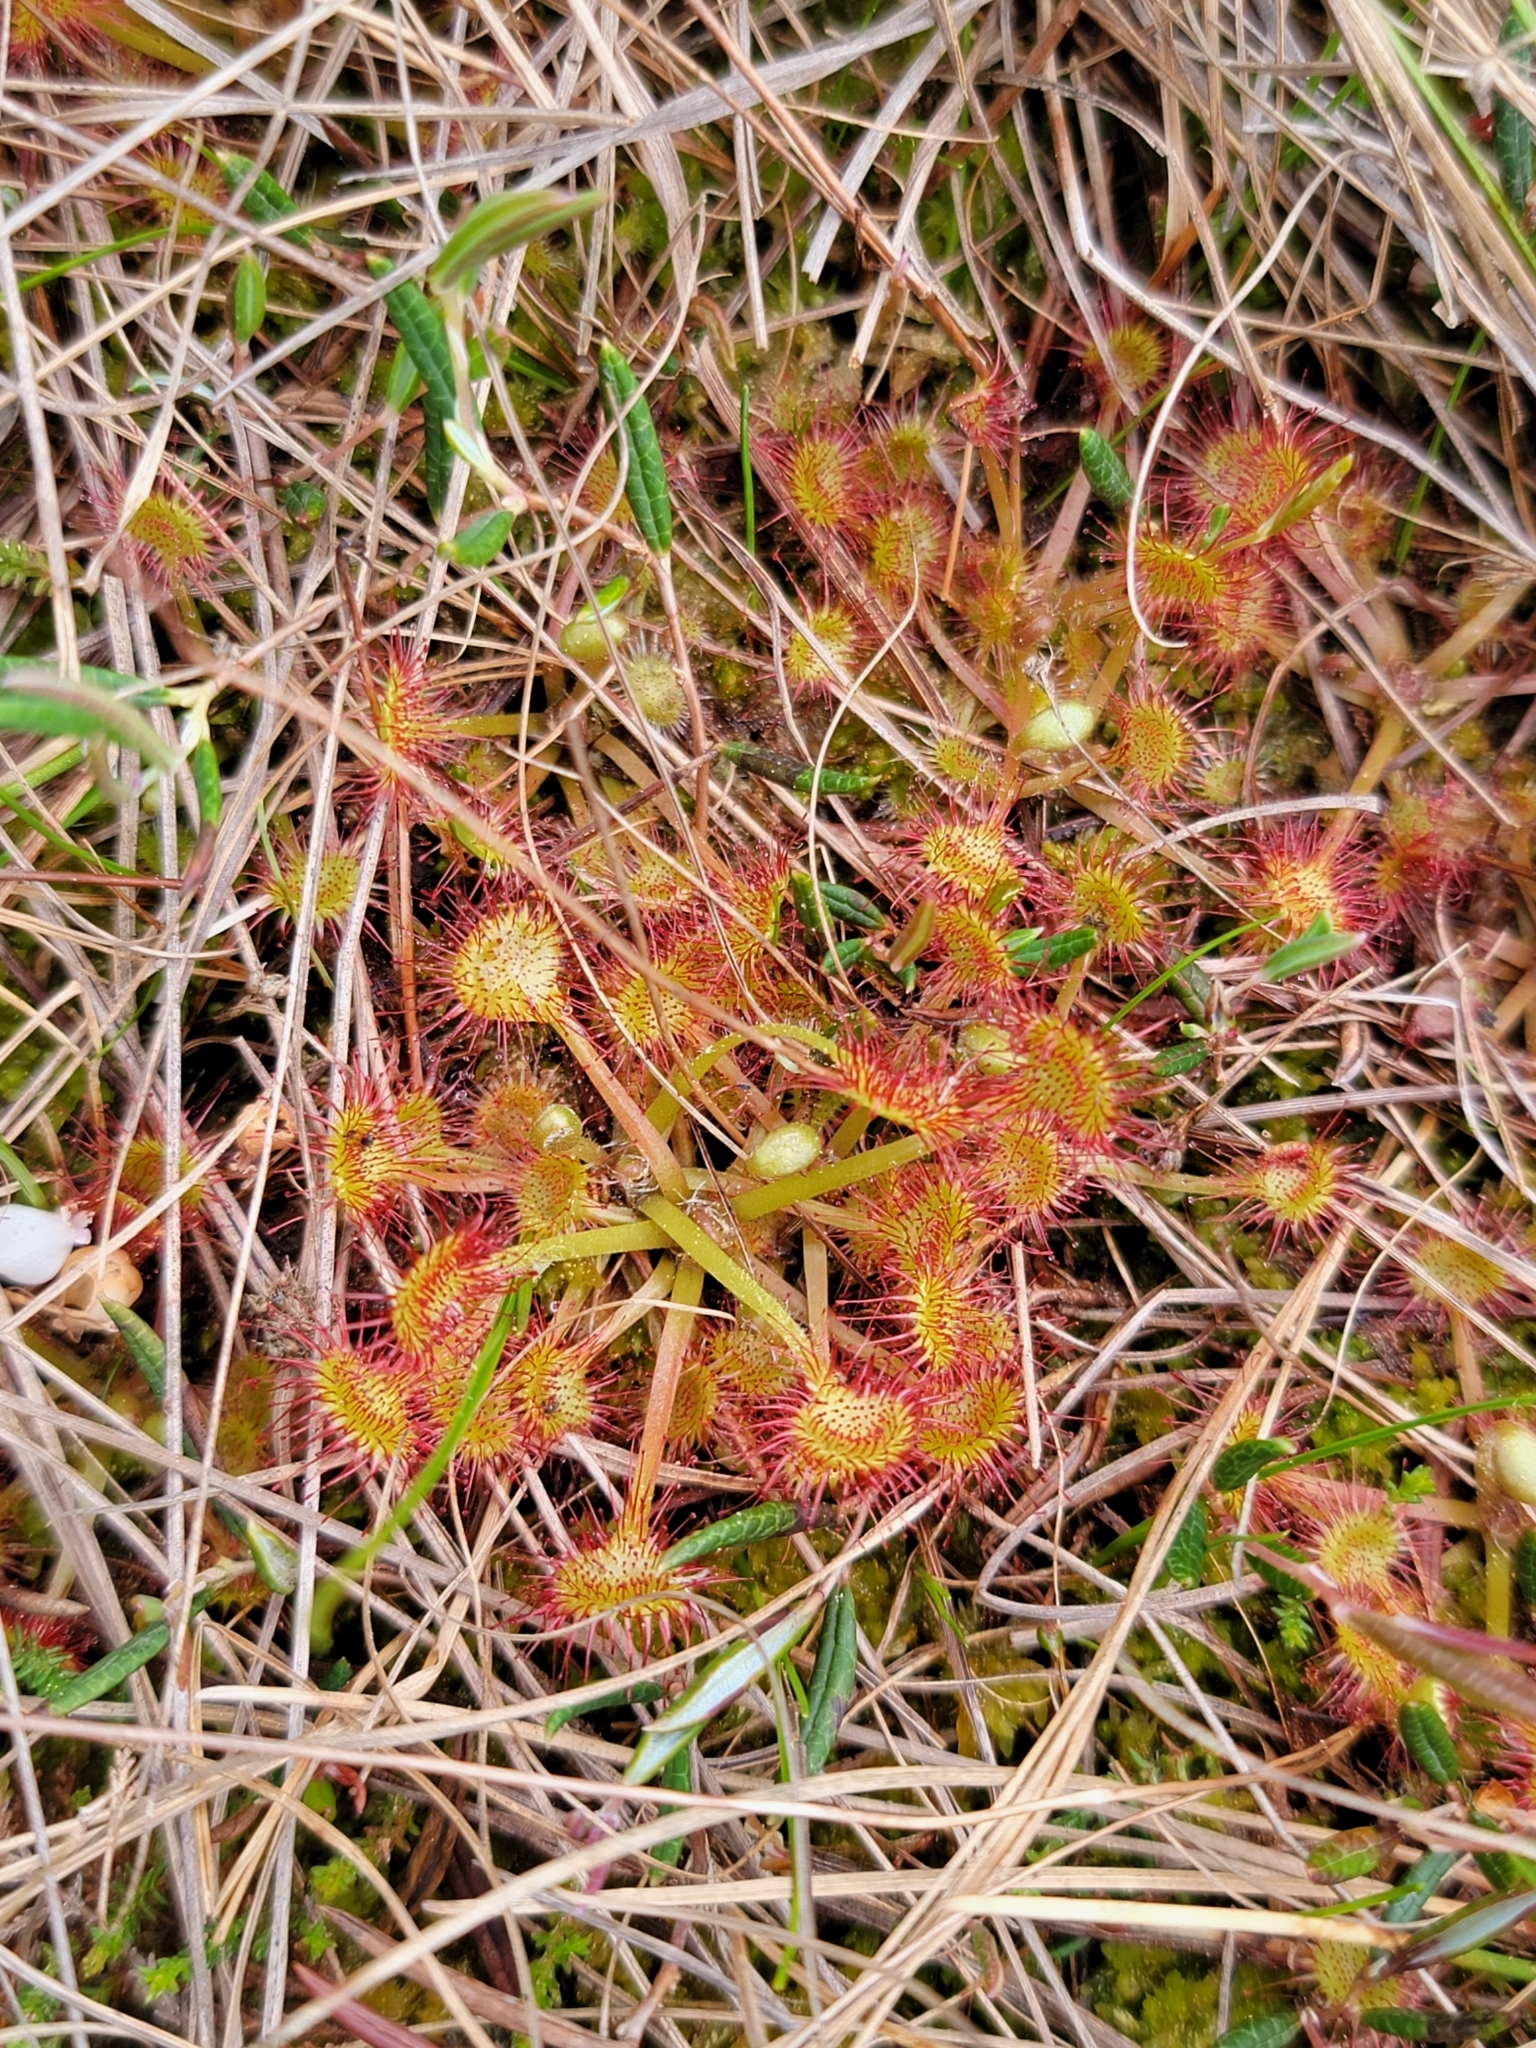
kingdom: Plantae
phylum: Tracheophyta
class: Magnoliopsida
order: Caryophyllales
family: Droseraceae
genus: Drosera
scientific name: Drosera rotundifolia
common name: Round-leaved sundew
